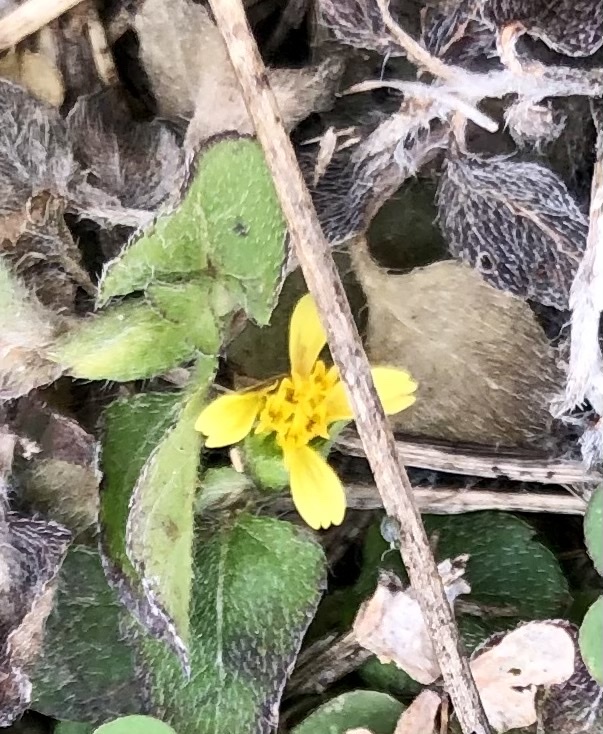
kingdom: Plantae
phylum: Tracheophyta
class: Magnoliopsida
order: Asterales
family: Asteraceae
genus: Calyptocarpus
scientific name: Calyptocarpus vialis
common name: Straggler daisy
